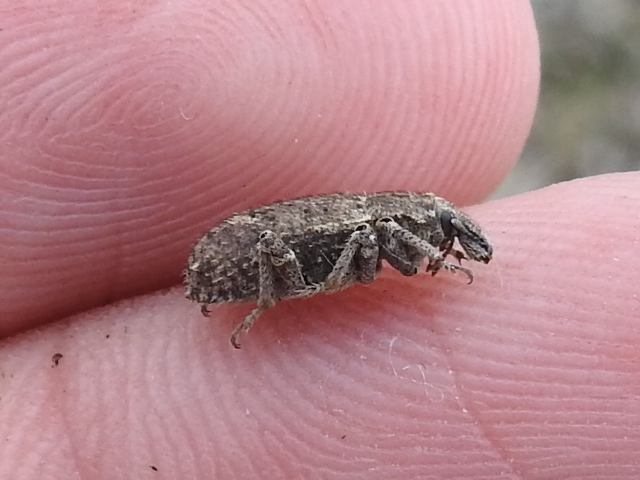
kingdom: Animalia
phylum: Arthropoda
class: Insecta
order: Coleoptera
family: Curculionidae
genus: Listroderes
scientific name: Listroderes costirostris
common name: Weevil
